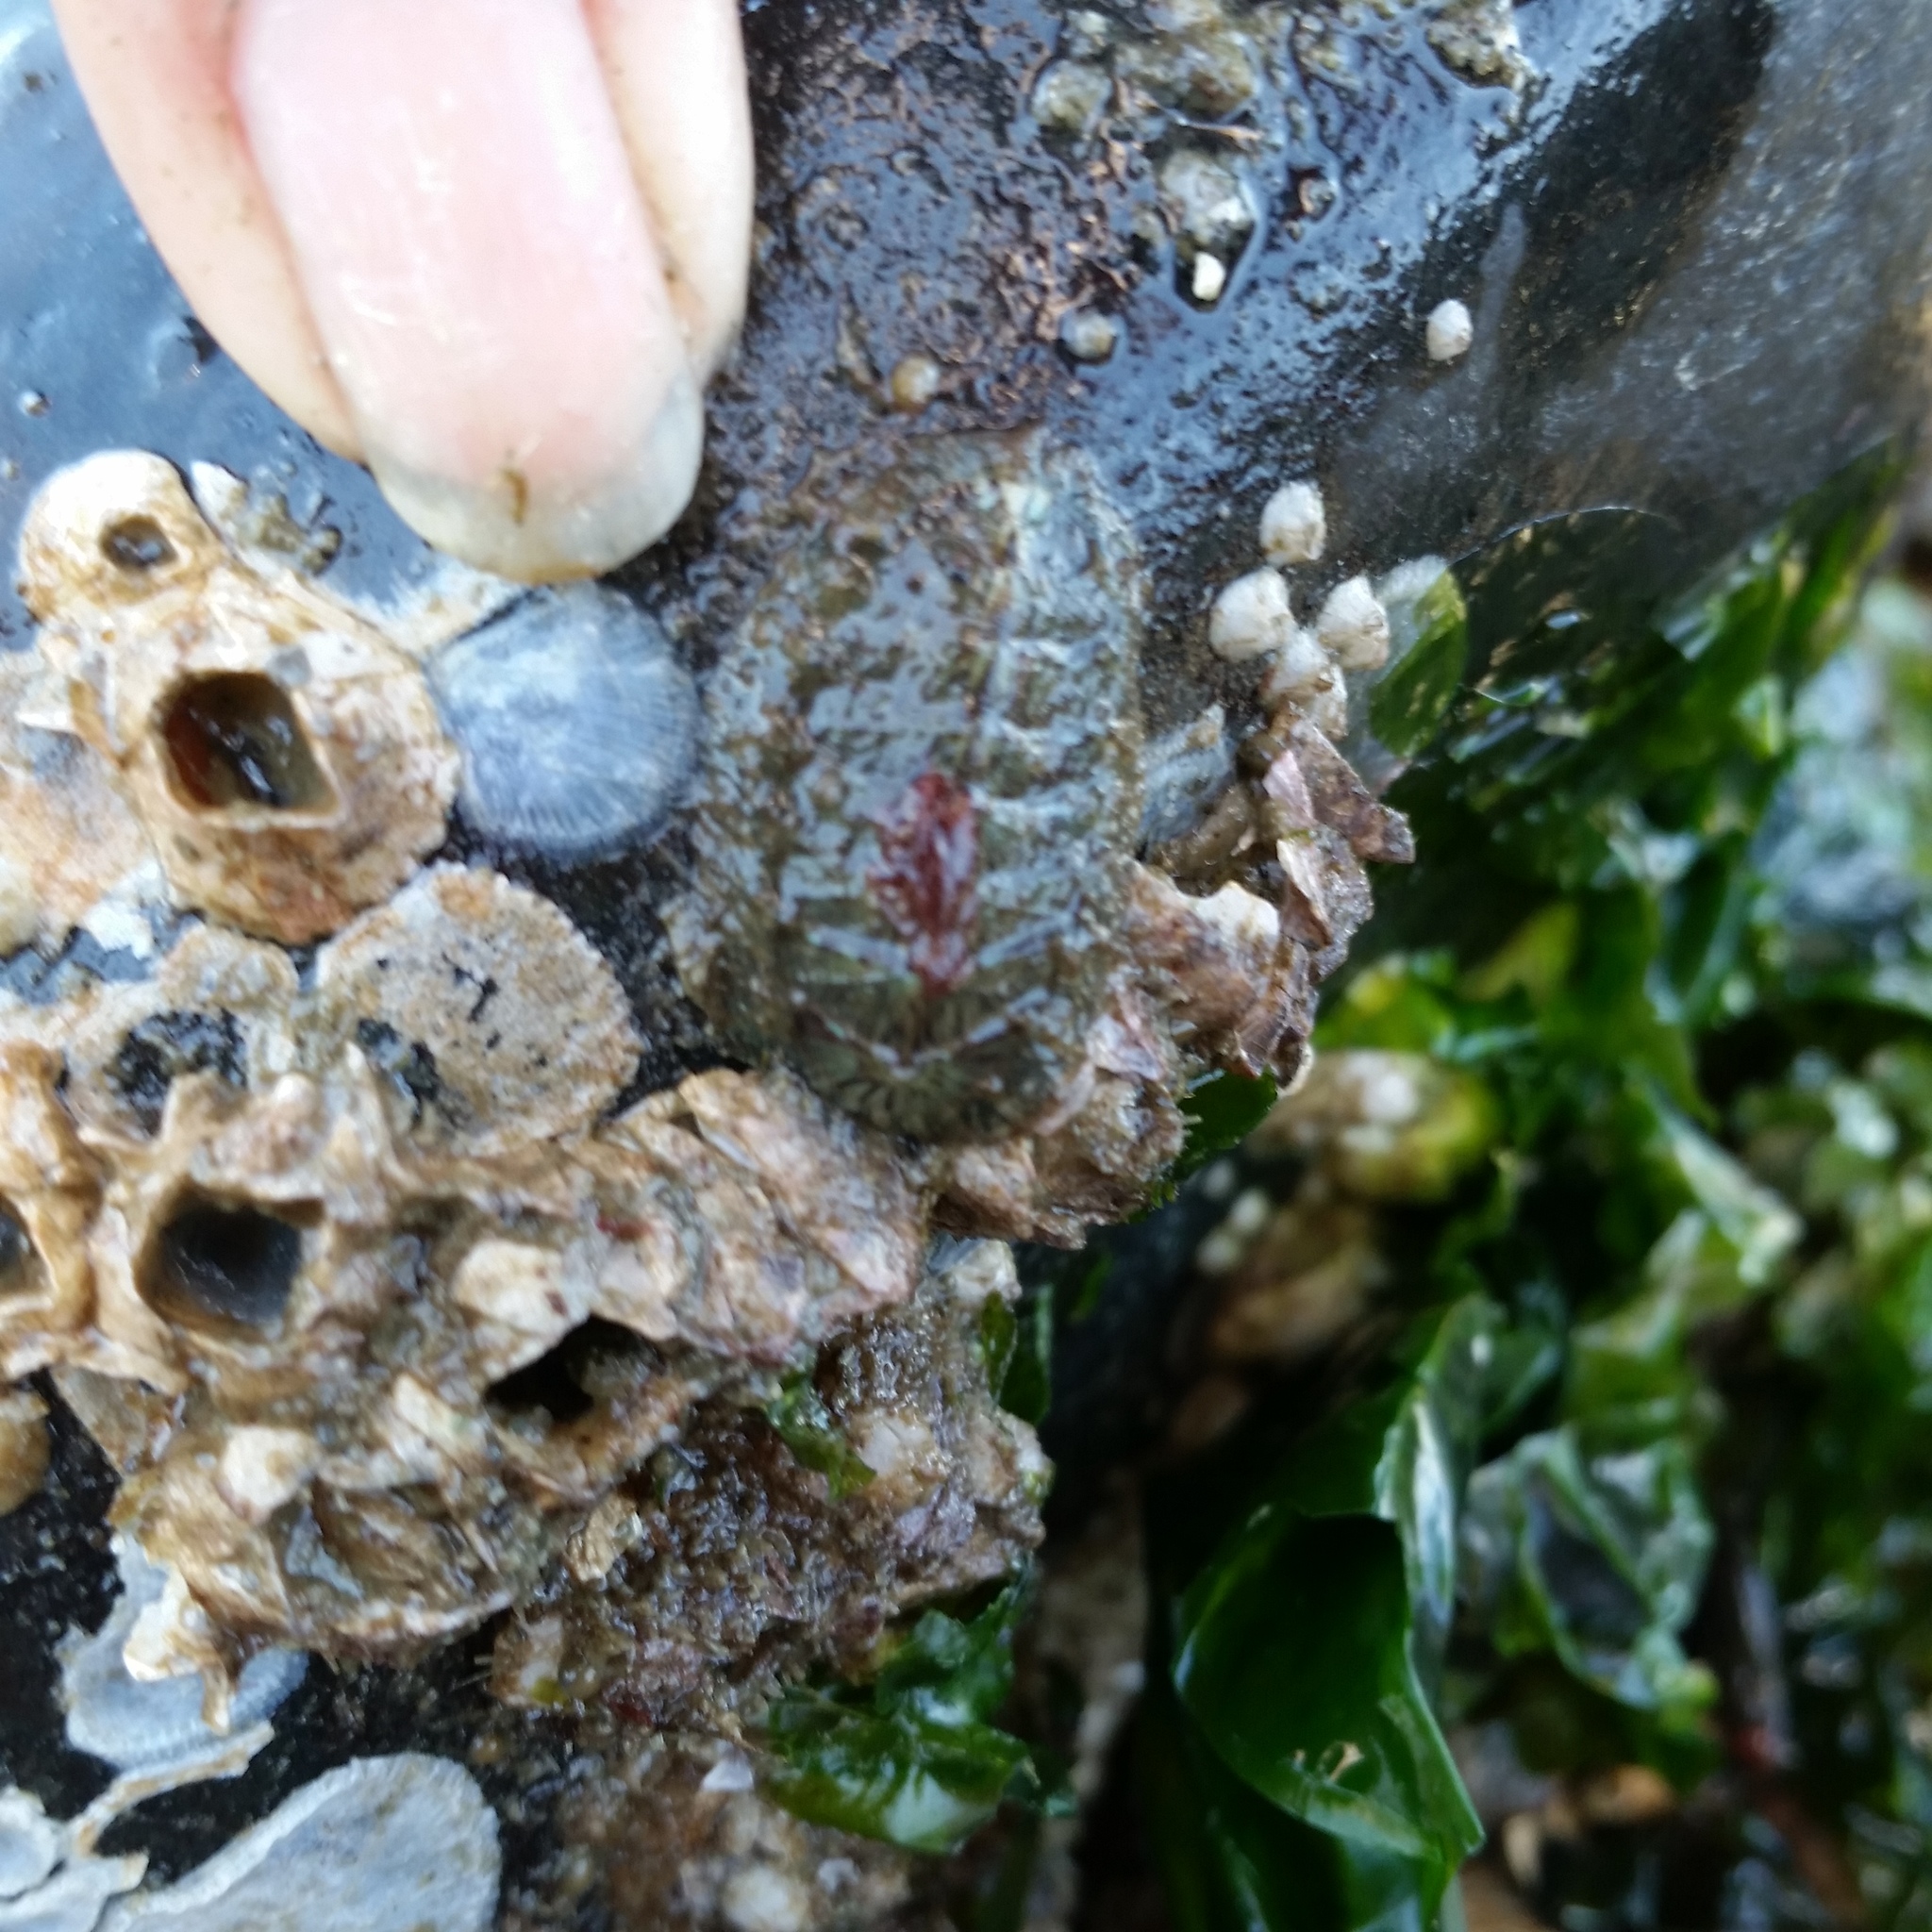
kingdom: Animalia
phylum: Mollusca
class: Polyplacophora
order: Chitonida
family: Mopaliidae
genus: Mopalia
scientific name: Mopalia lignosa
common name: Woody chiton
